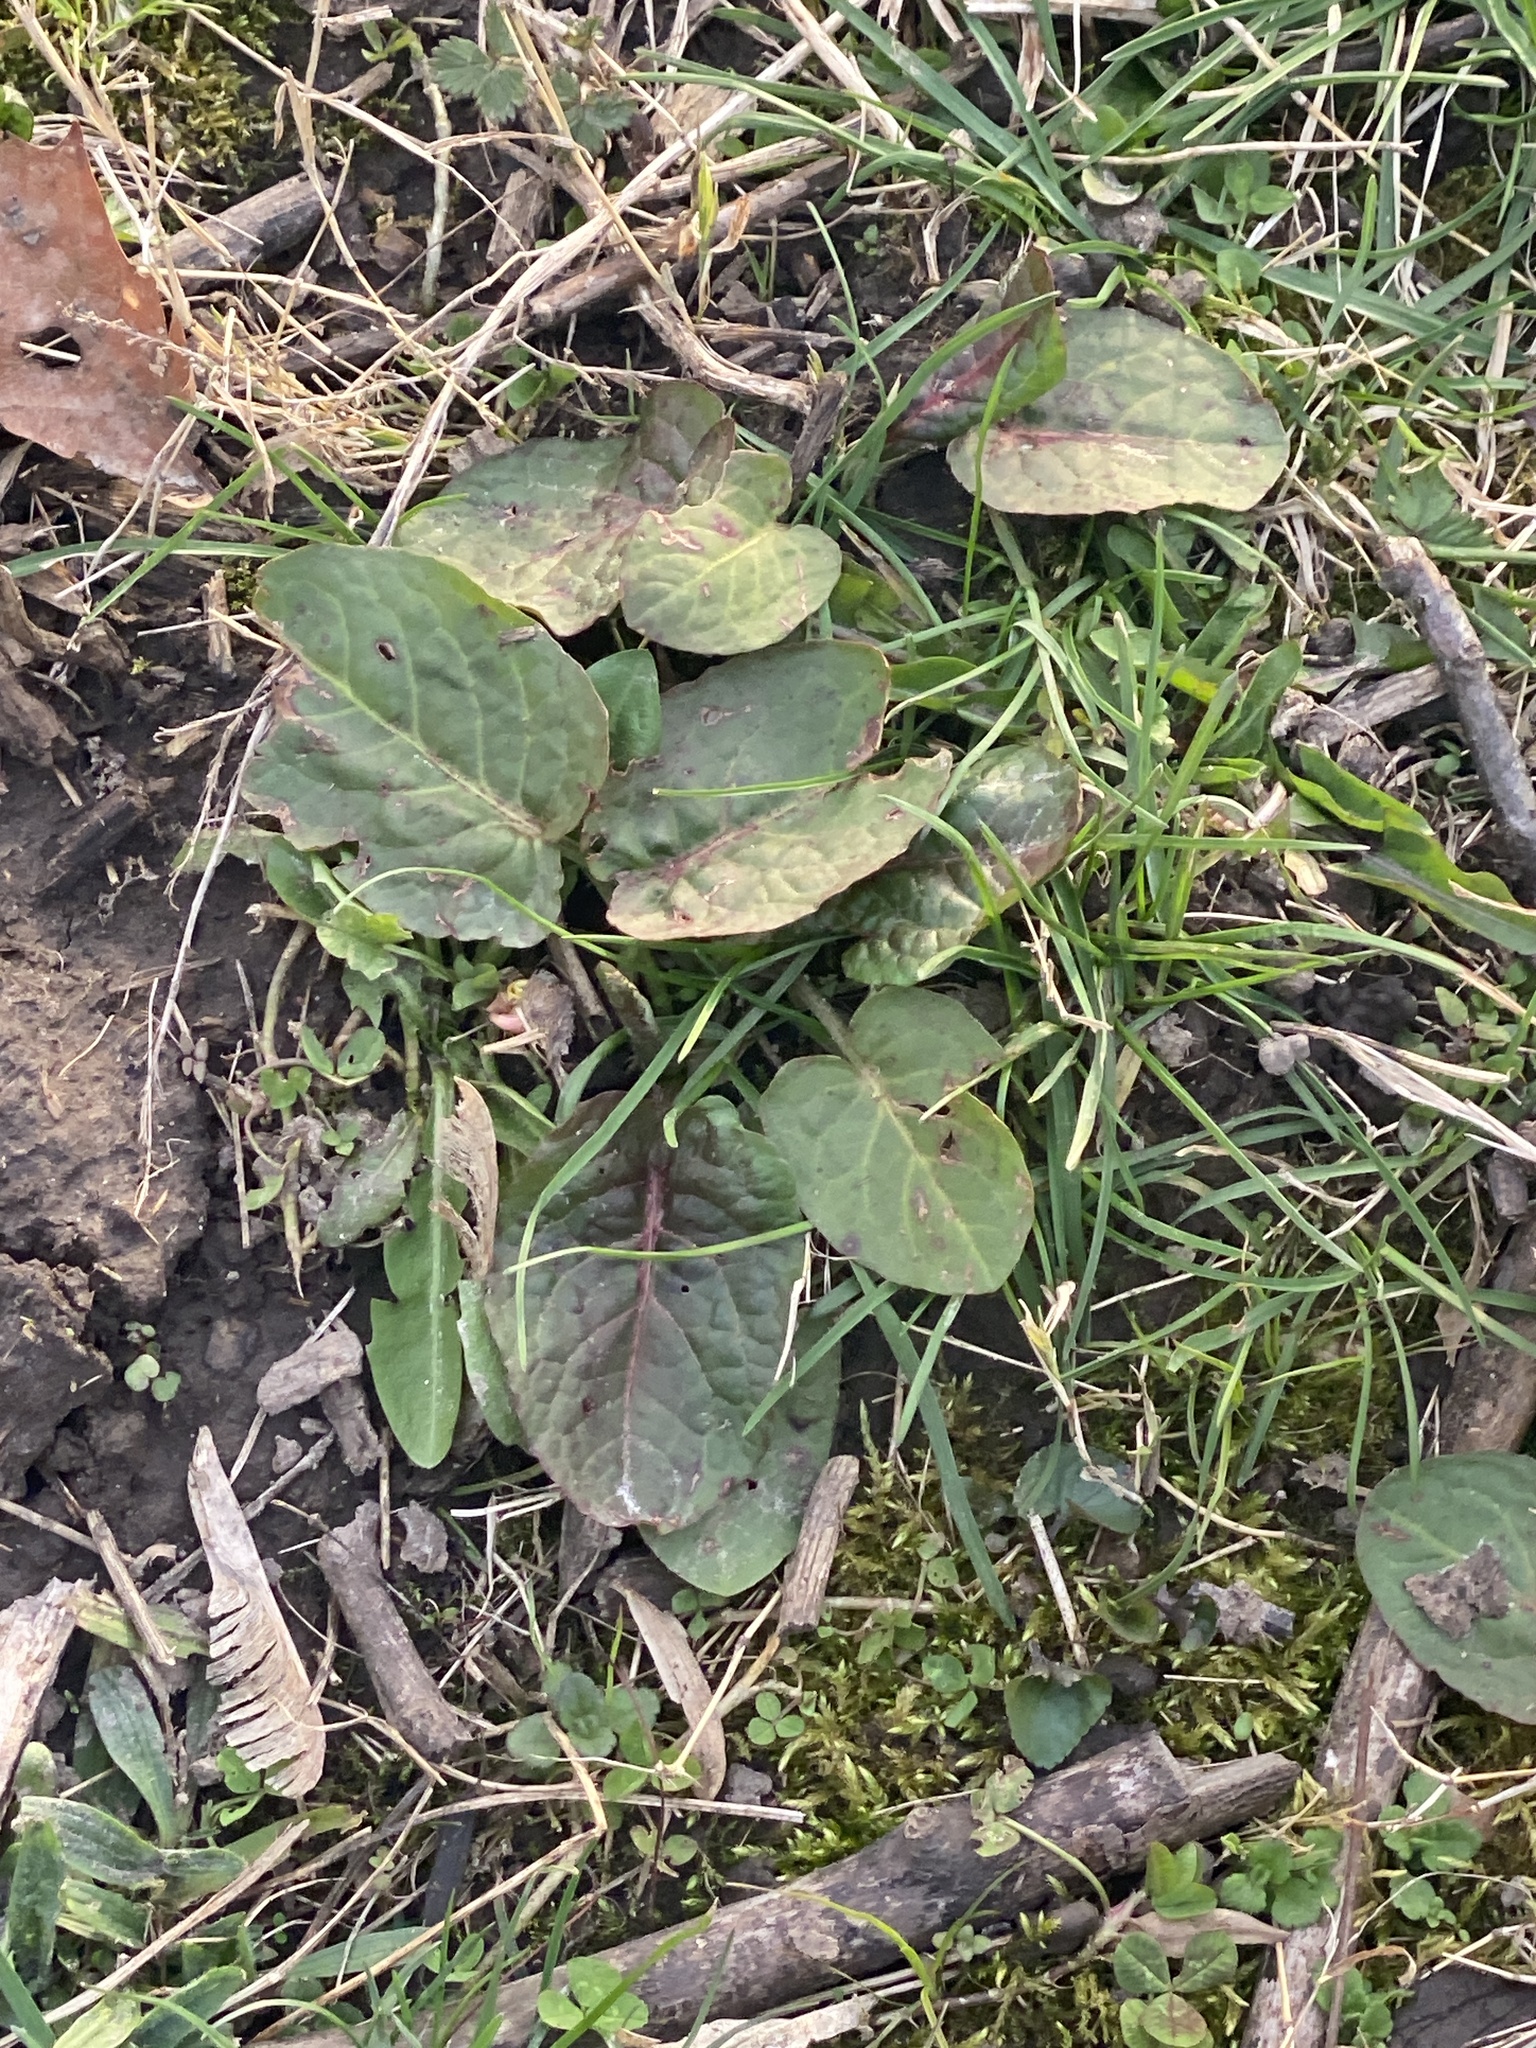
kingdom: Plantae
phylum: Tracheophyta
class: Magnoliopsida
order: Caryophyllales
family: Polygonaceae
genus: Rumex
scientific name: Rumex obtusifolius
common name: Bitter dock
